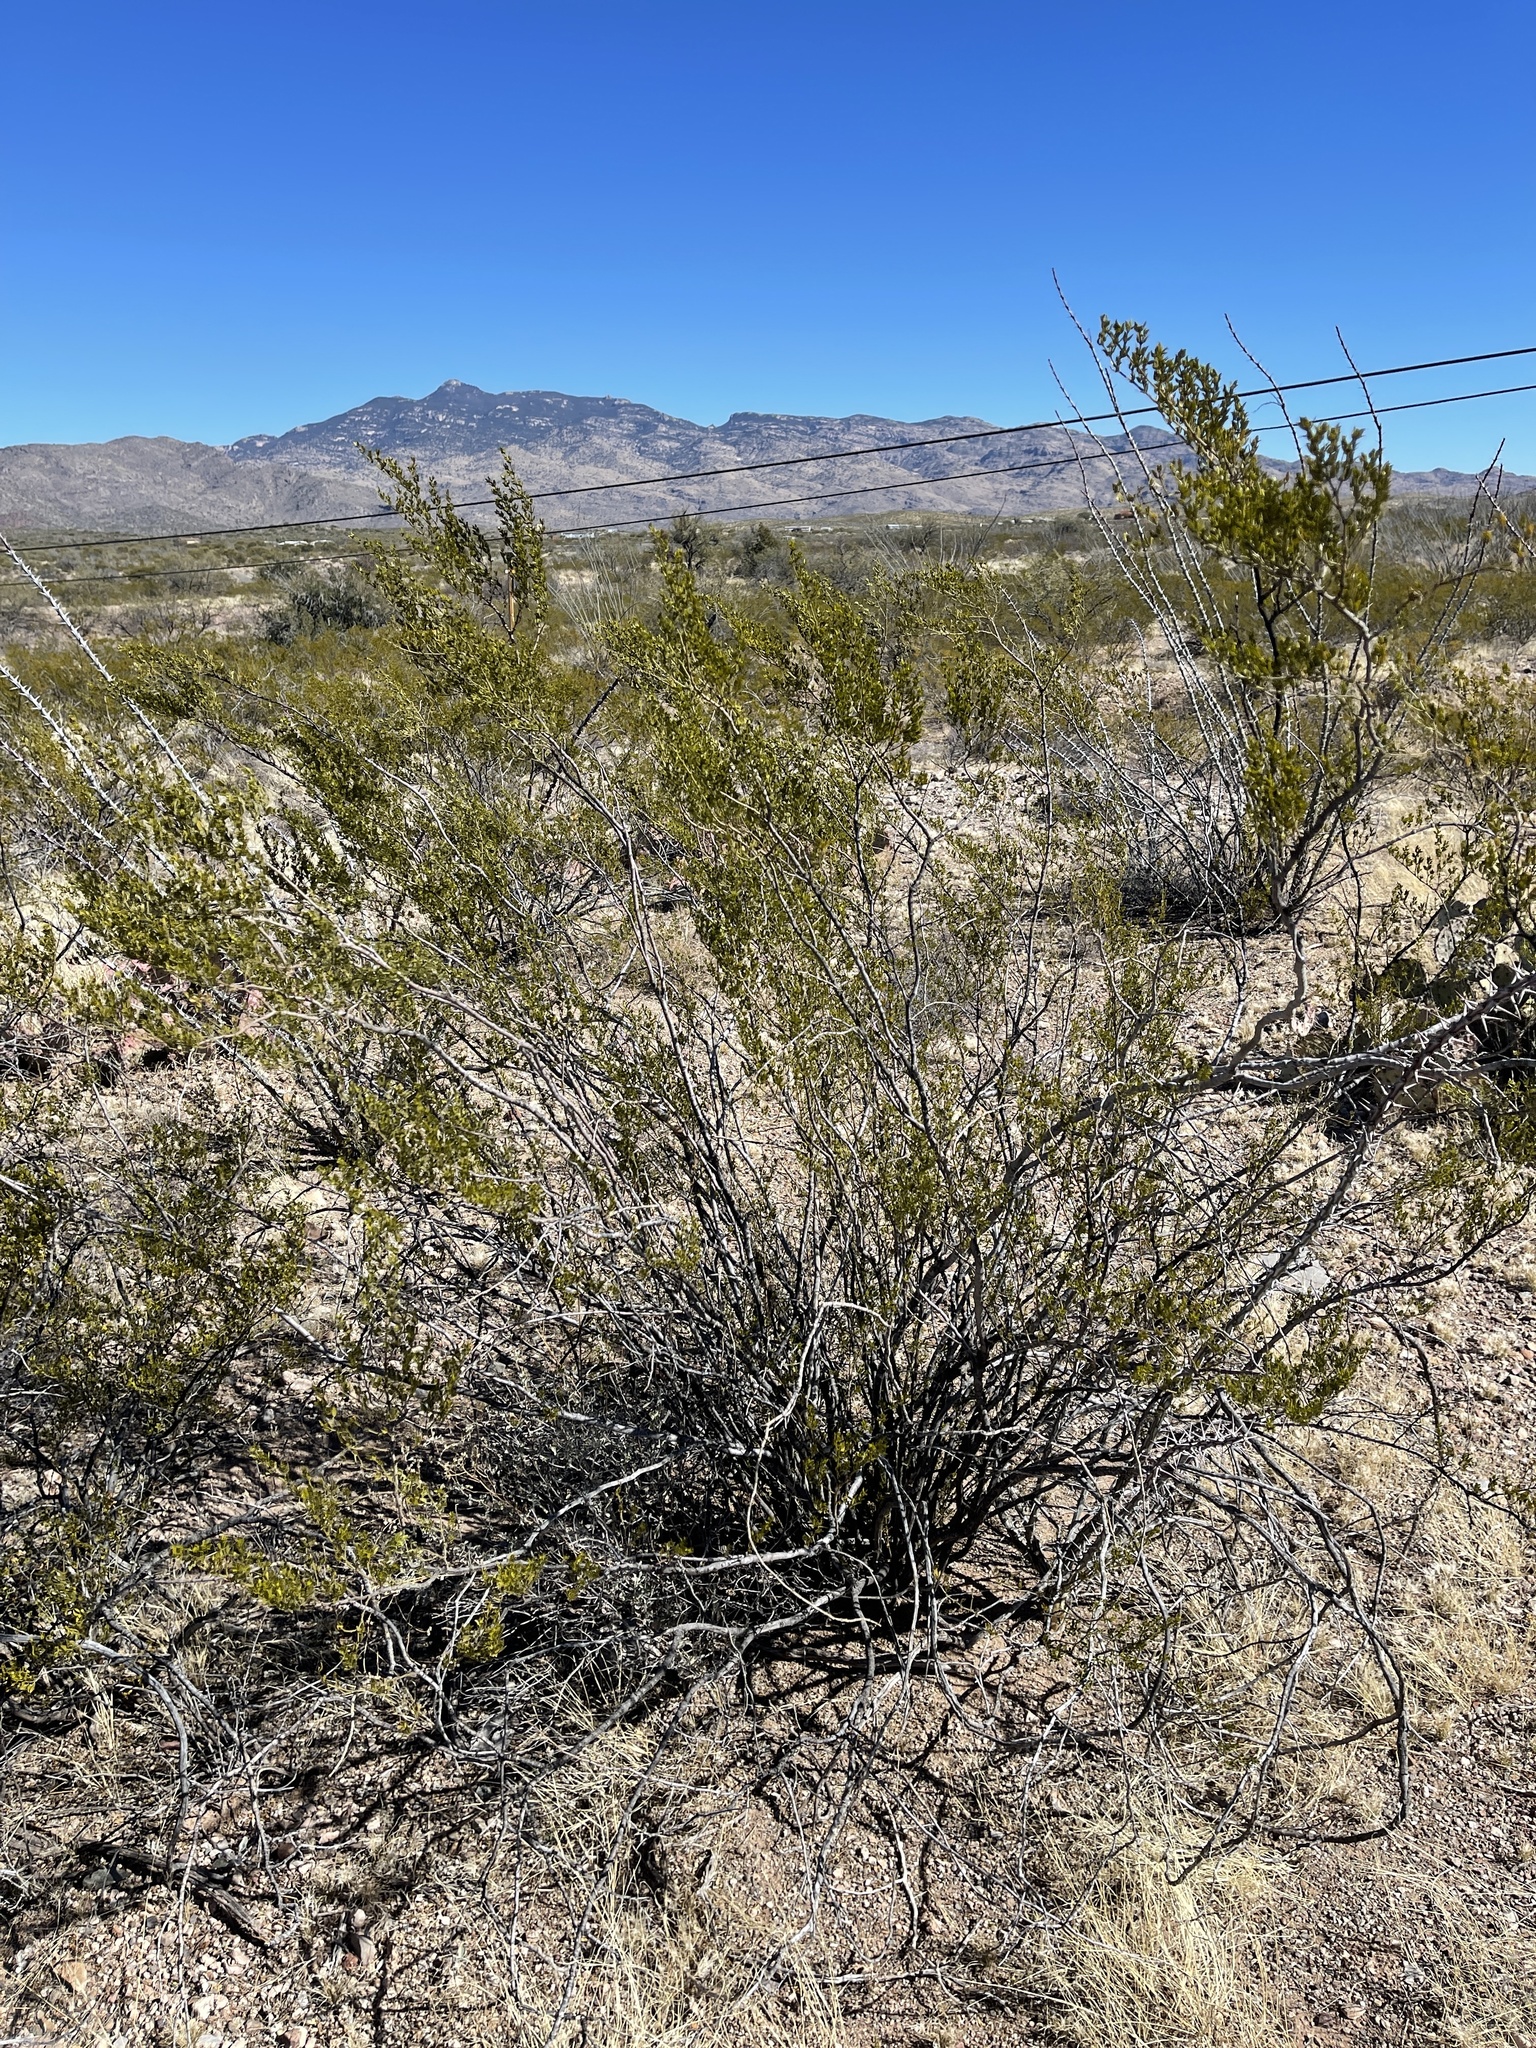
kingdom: Plantae
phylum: Tracheophyta
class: Magnoliopsida
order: Zygophyllales
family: Zygophyllaceae
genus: Larrea
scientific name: Larrea tridentata
